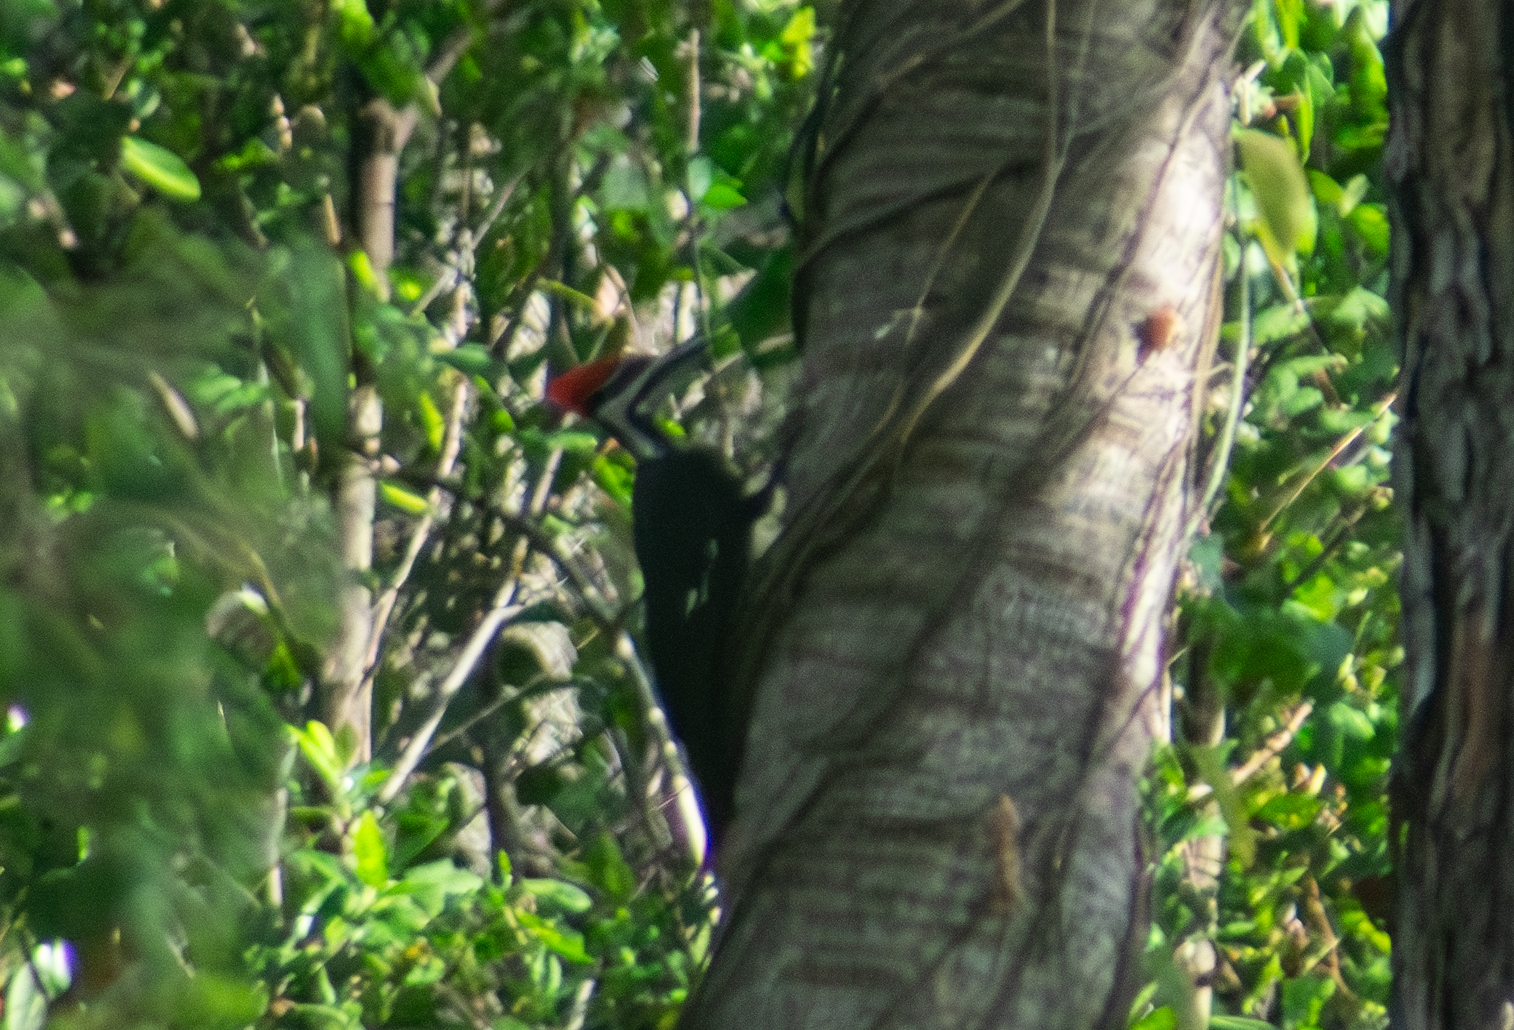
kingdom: Animalia
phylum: Chordata
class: Aves
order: Piciformes
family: Picidae
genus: Dryocopus
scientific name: Dryocopus pileatus
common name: Pileated woodpecker
